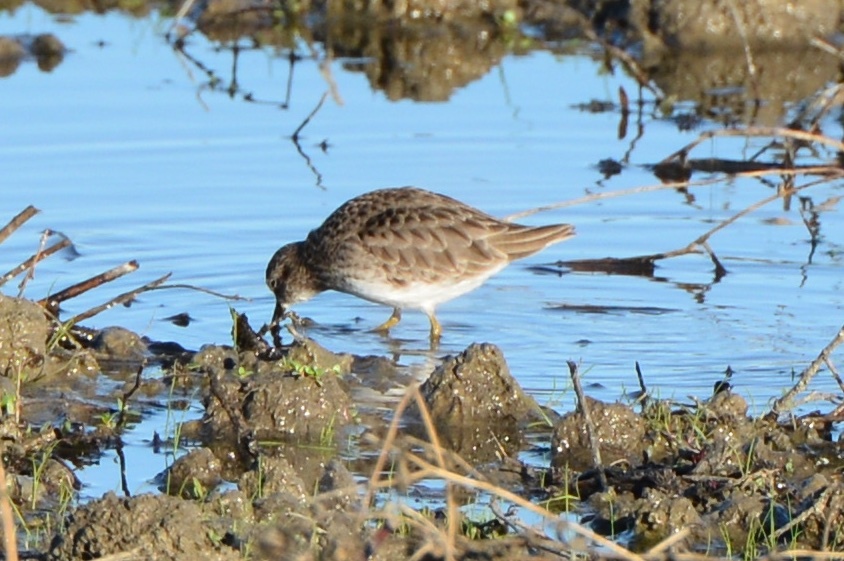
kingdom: Animalia
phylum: Chordata
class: Aves
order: Charadriiformes
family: Scolopacidae
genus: Calidris
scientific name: Calidris minutilla
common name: Least sandpiper
